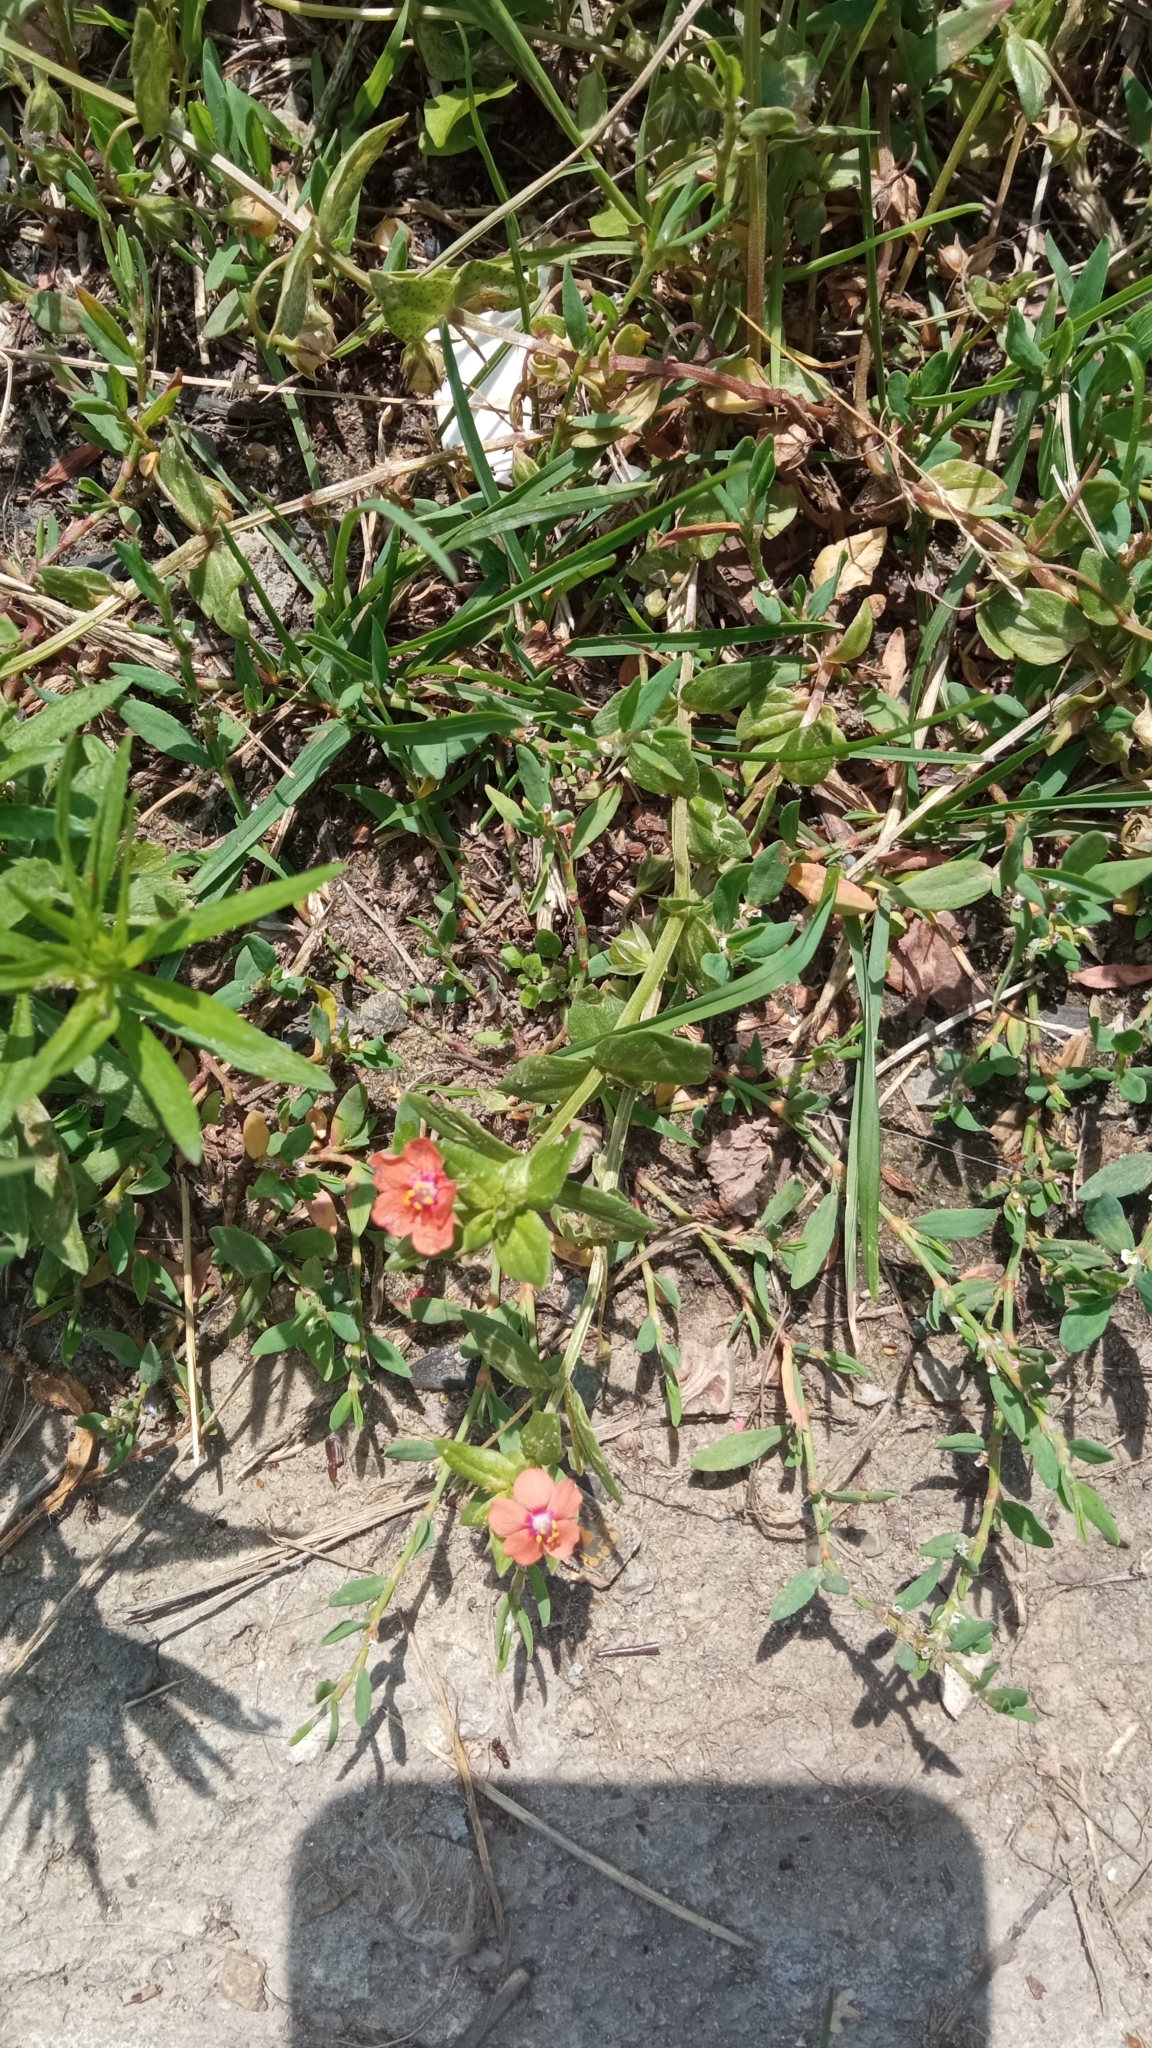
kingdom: Plantae
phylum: Tracheophyta
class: Magnoliopsida
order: Ericales
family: Primulaceae
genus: Lysimachia
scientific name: Lysimachia arvensis
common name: Scarlet pimpernel
